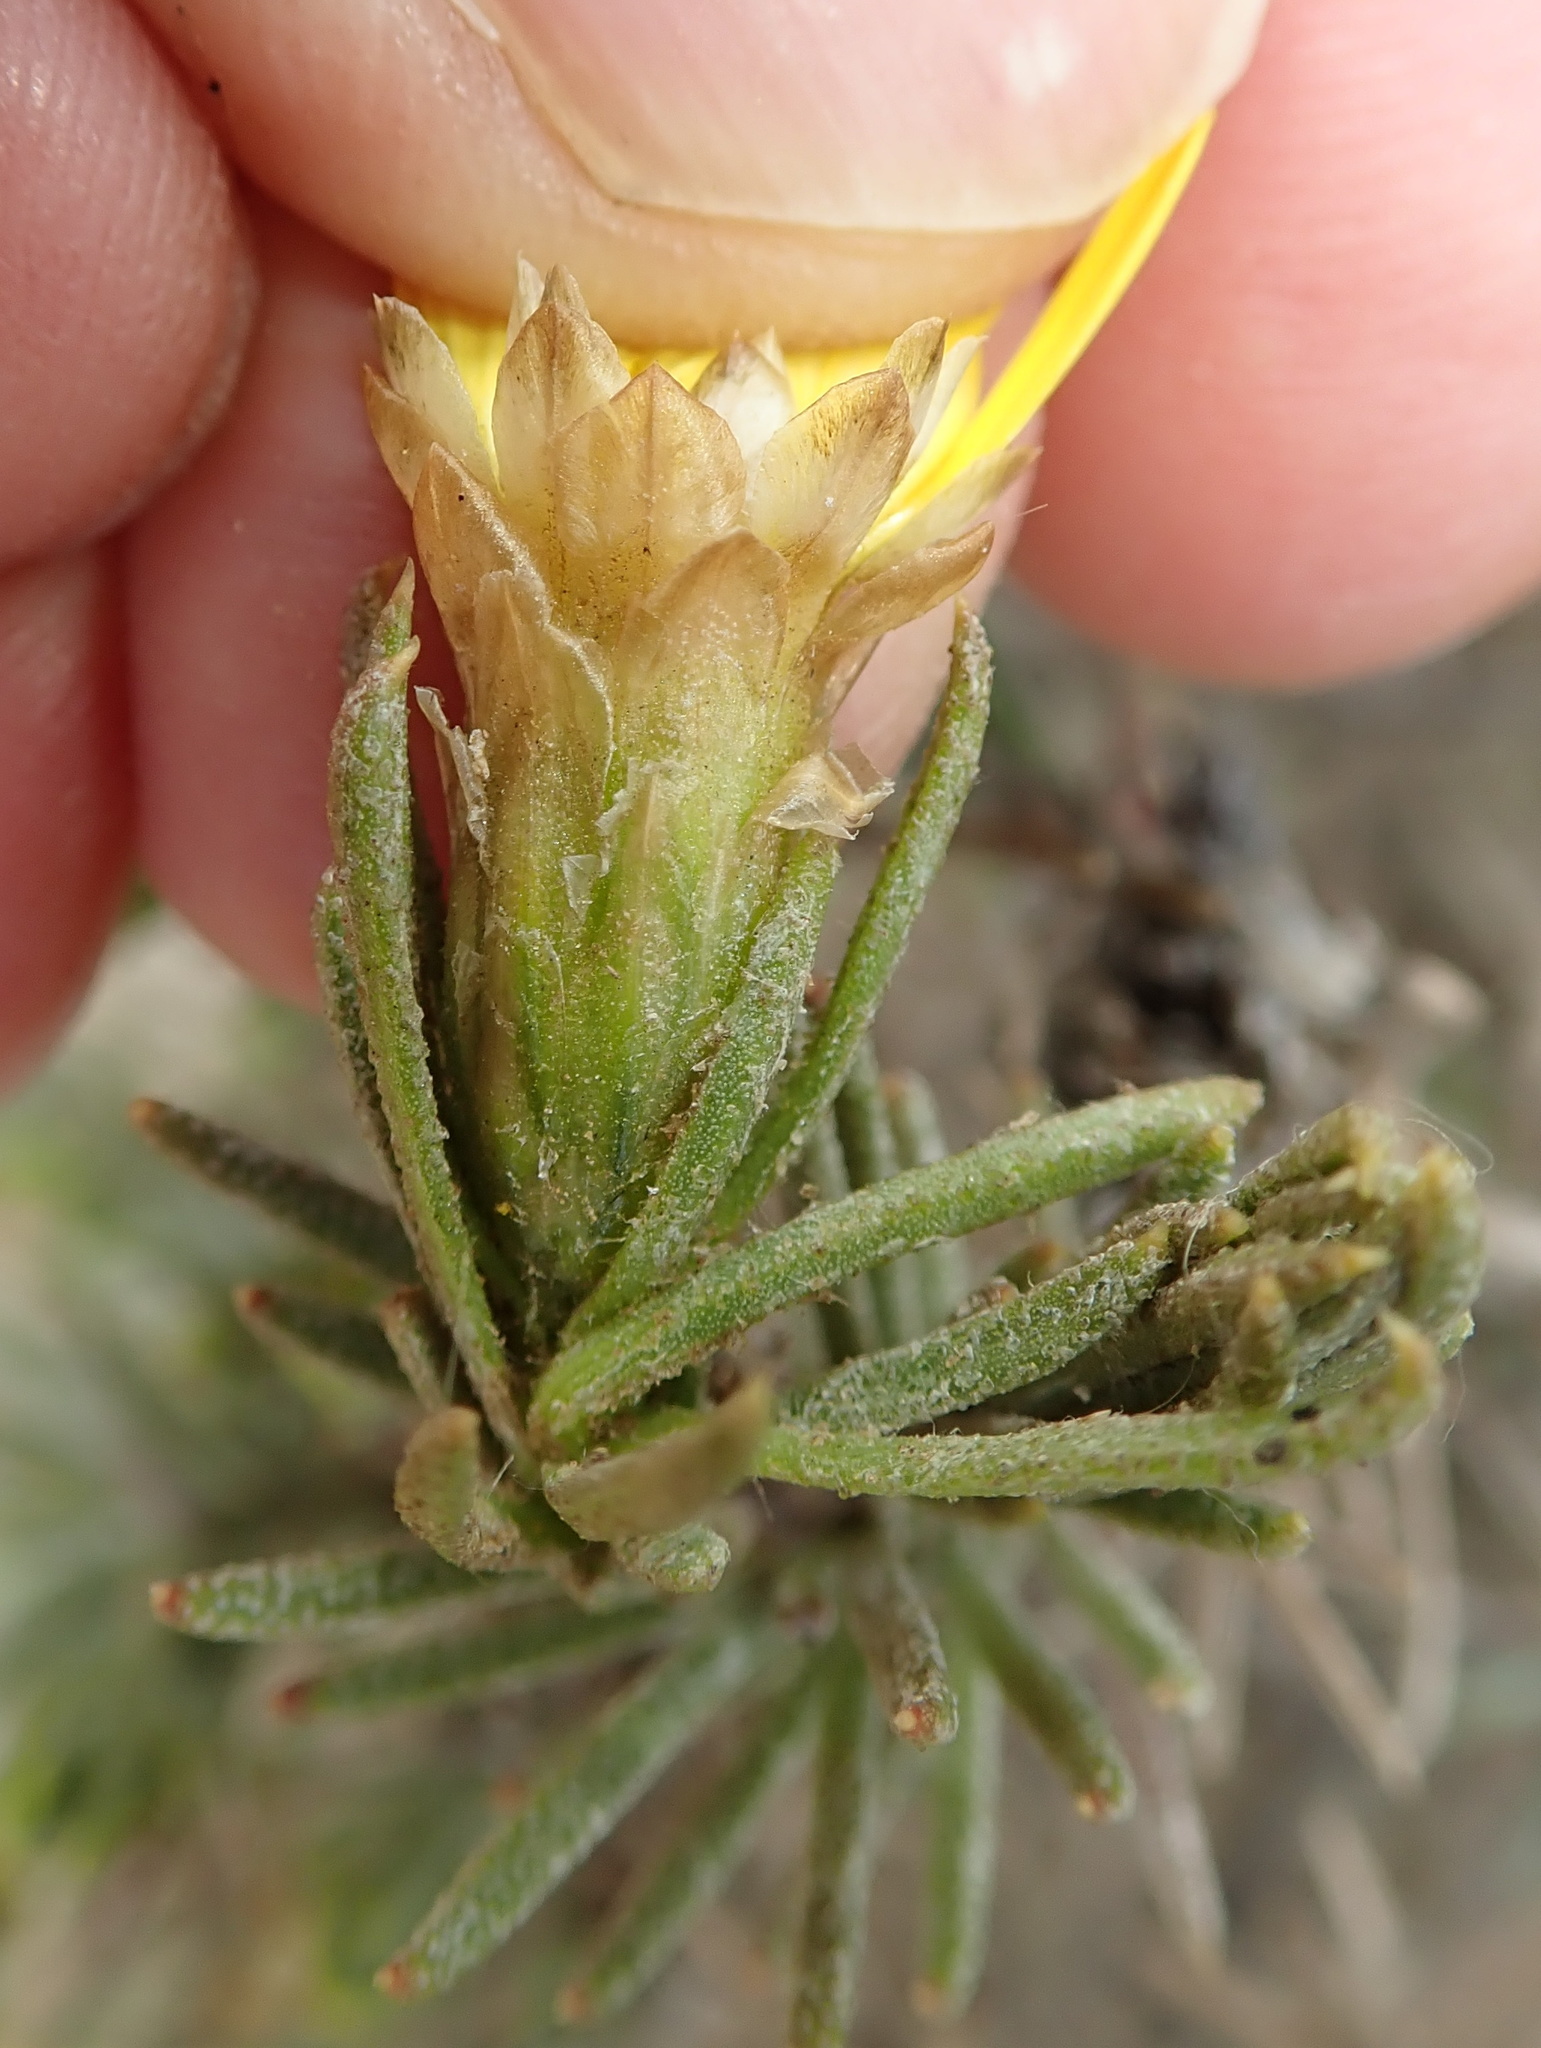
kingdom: Plantae
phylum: Tracheophyta
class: Magnoliopsida
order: Asterales
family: Asteraceae
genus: Oedera
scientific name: Oedera acerosa
